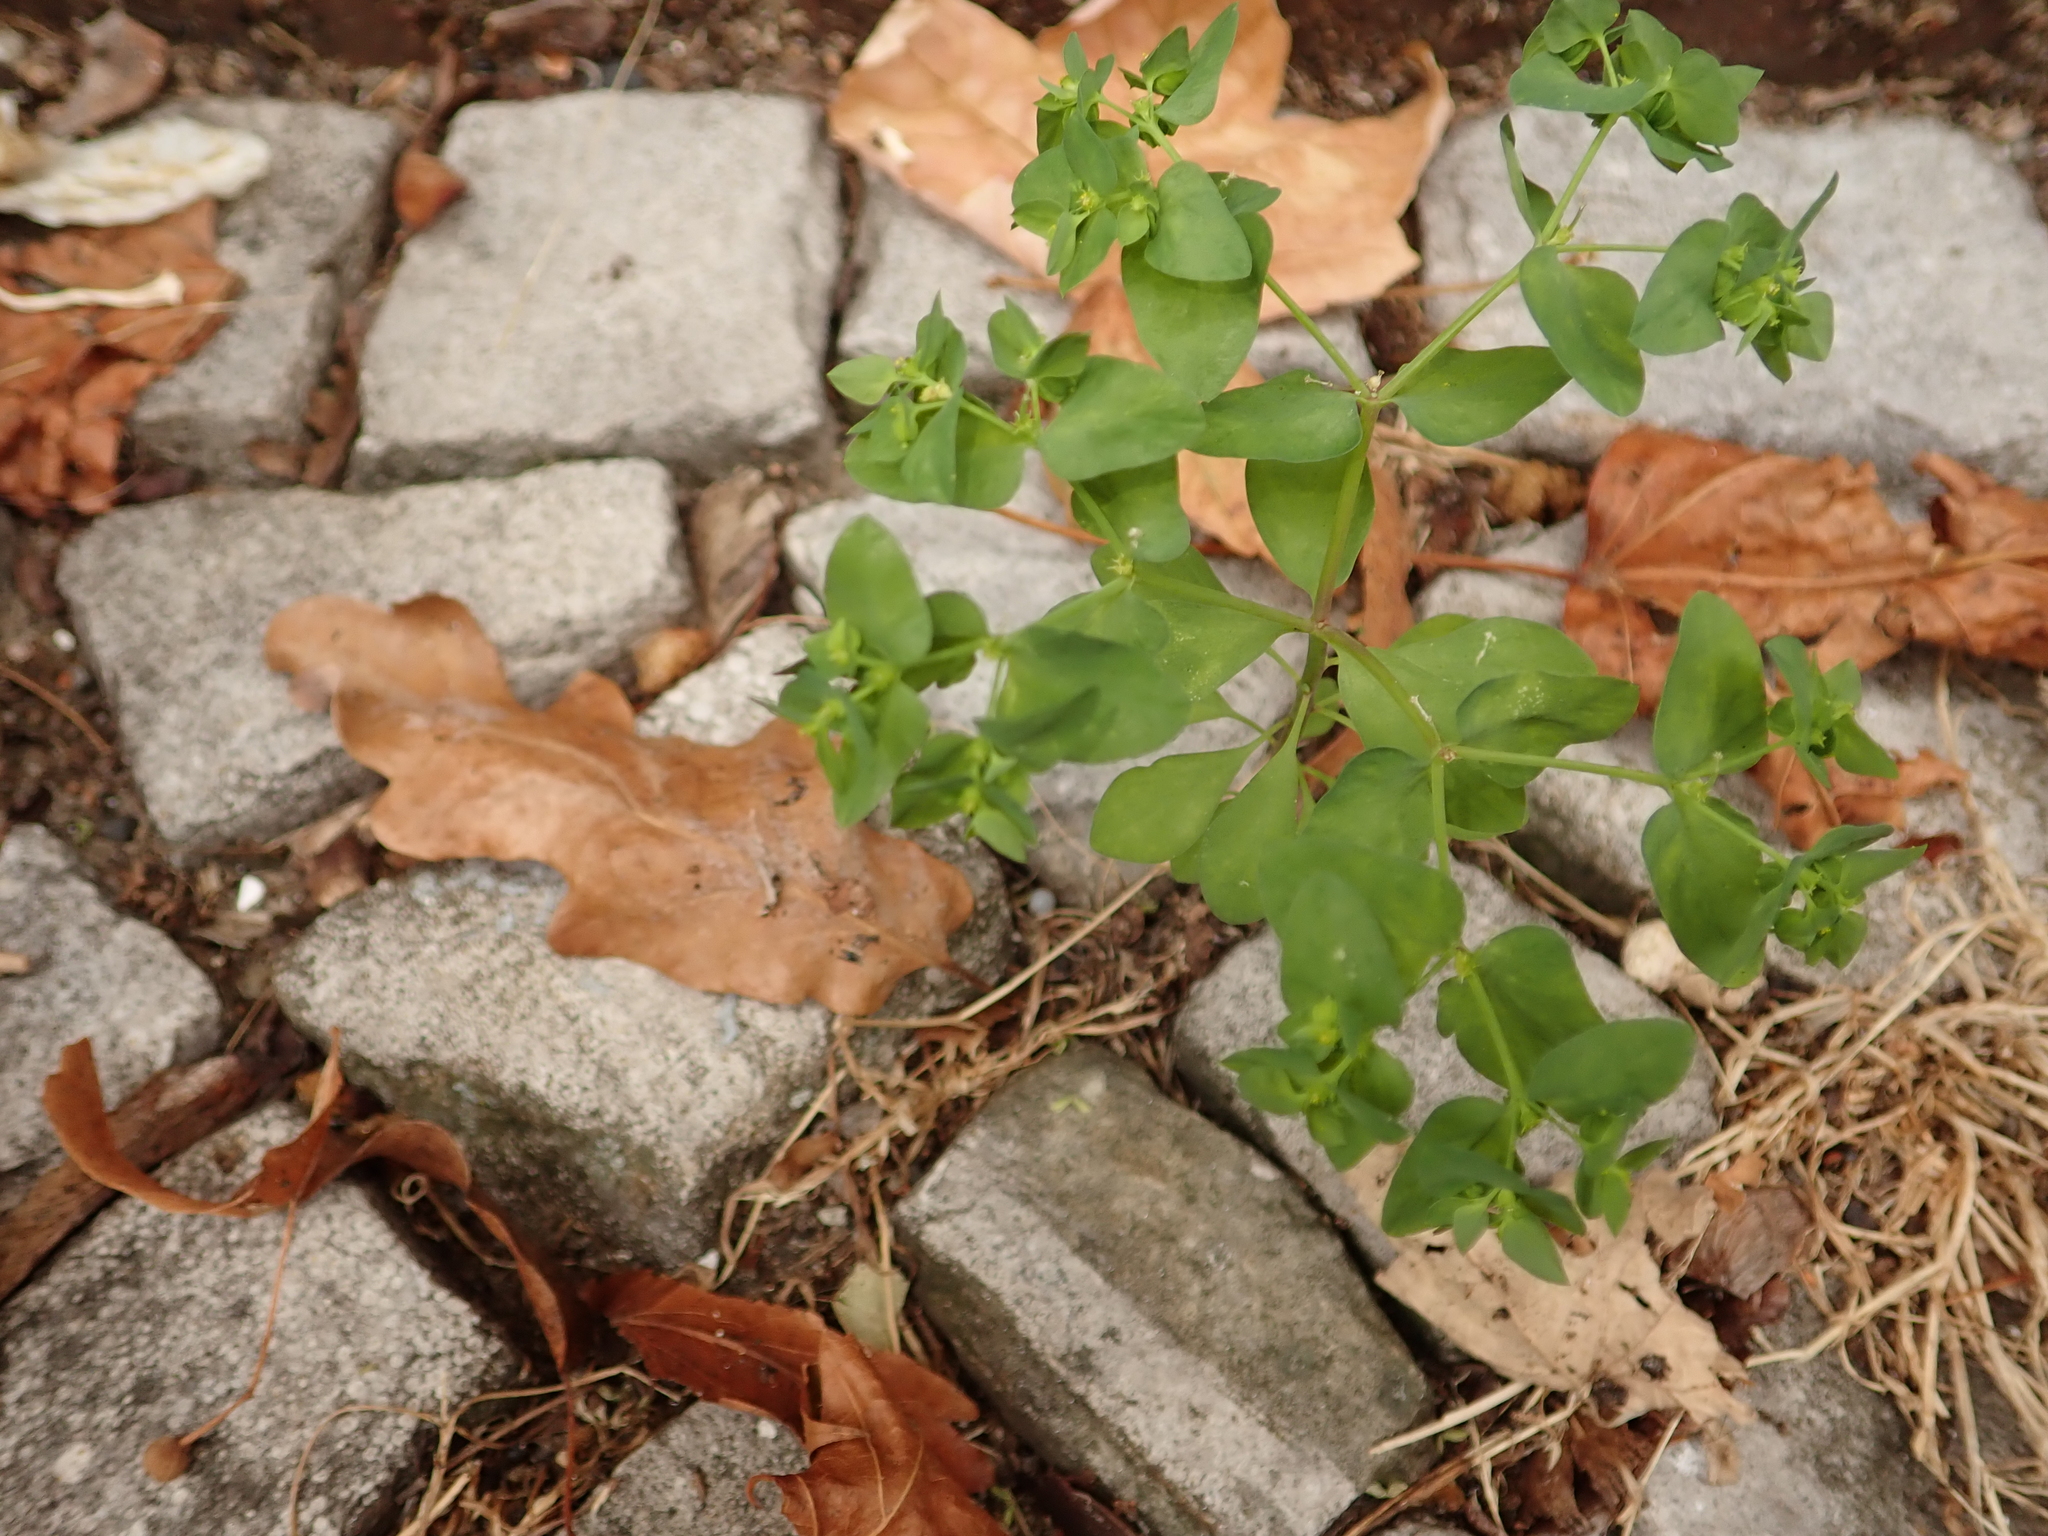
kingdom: Plantae
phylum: Tracheophyta
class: Magnoliopsida
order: Malpighiales
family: Euphorbiaceae
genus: Euphorbia
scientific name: Euphorbia peplus
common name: Petty spurge
